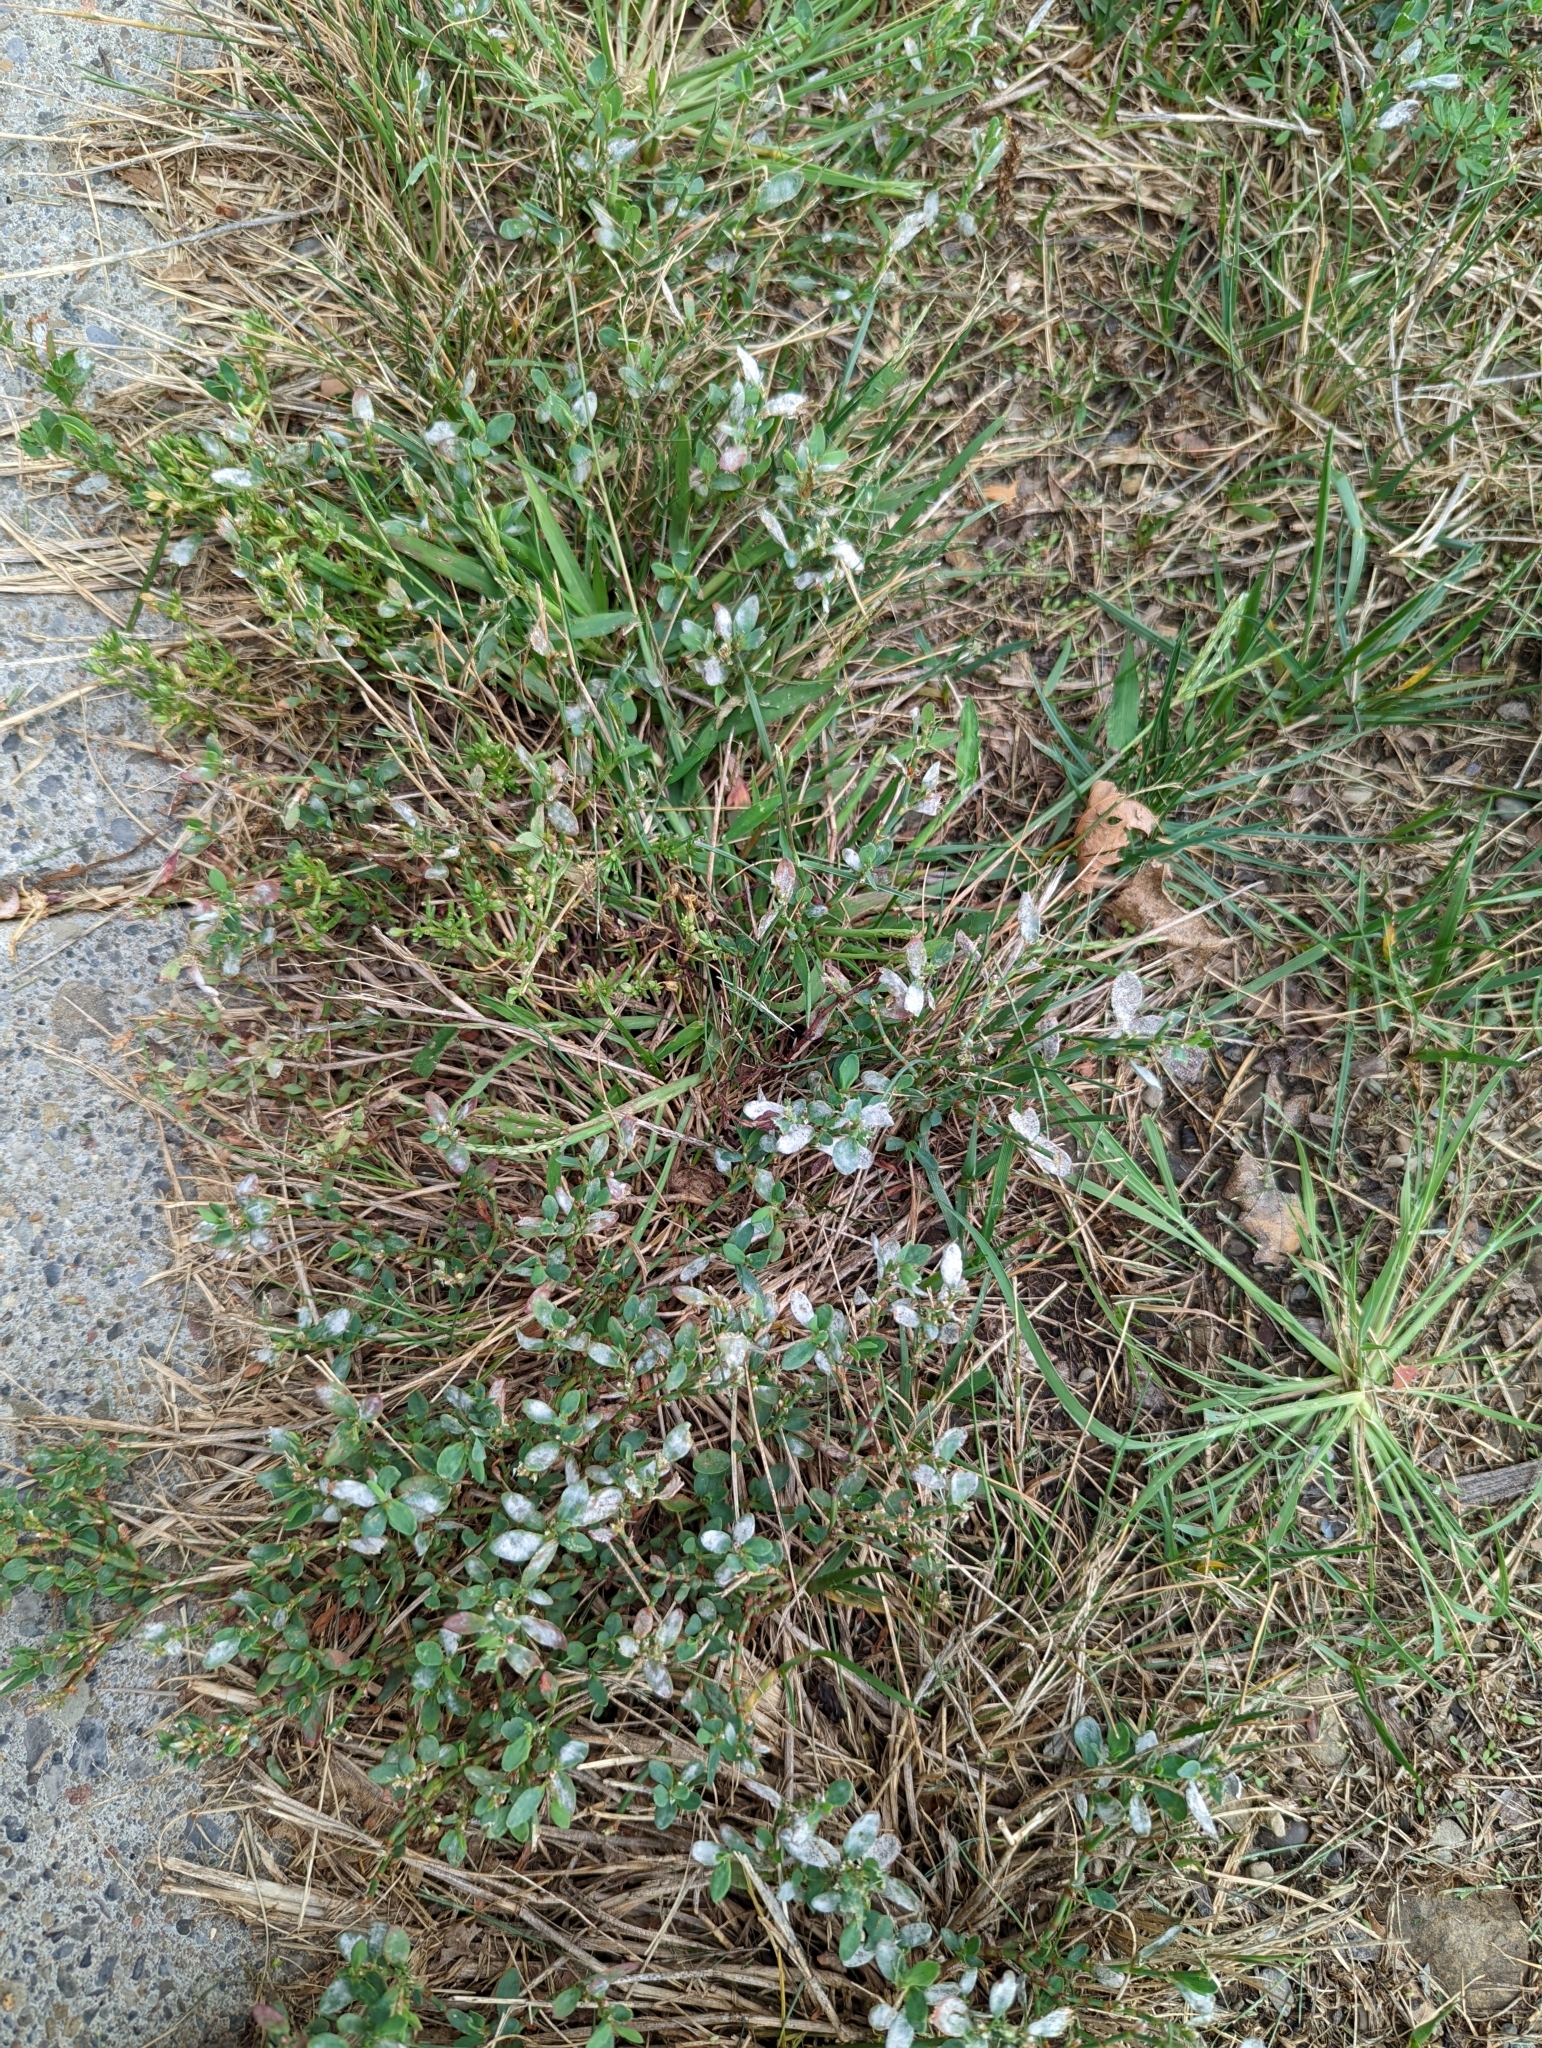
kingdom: Fungi
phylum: Ascomycota
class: Leotiomycetes
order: Helotiales
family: Erysiphaceae
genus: Erysiphe
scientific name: Erysiphe polygoni
